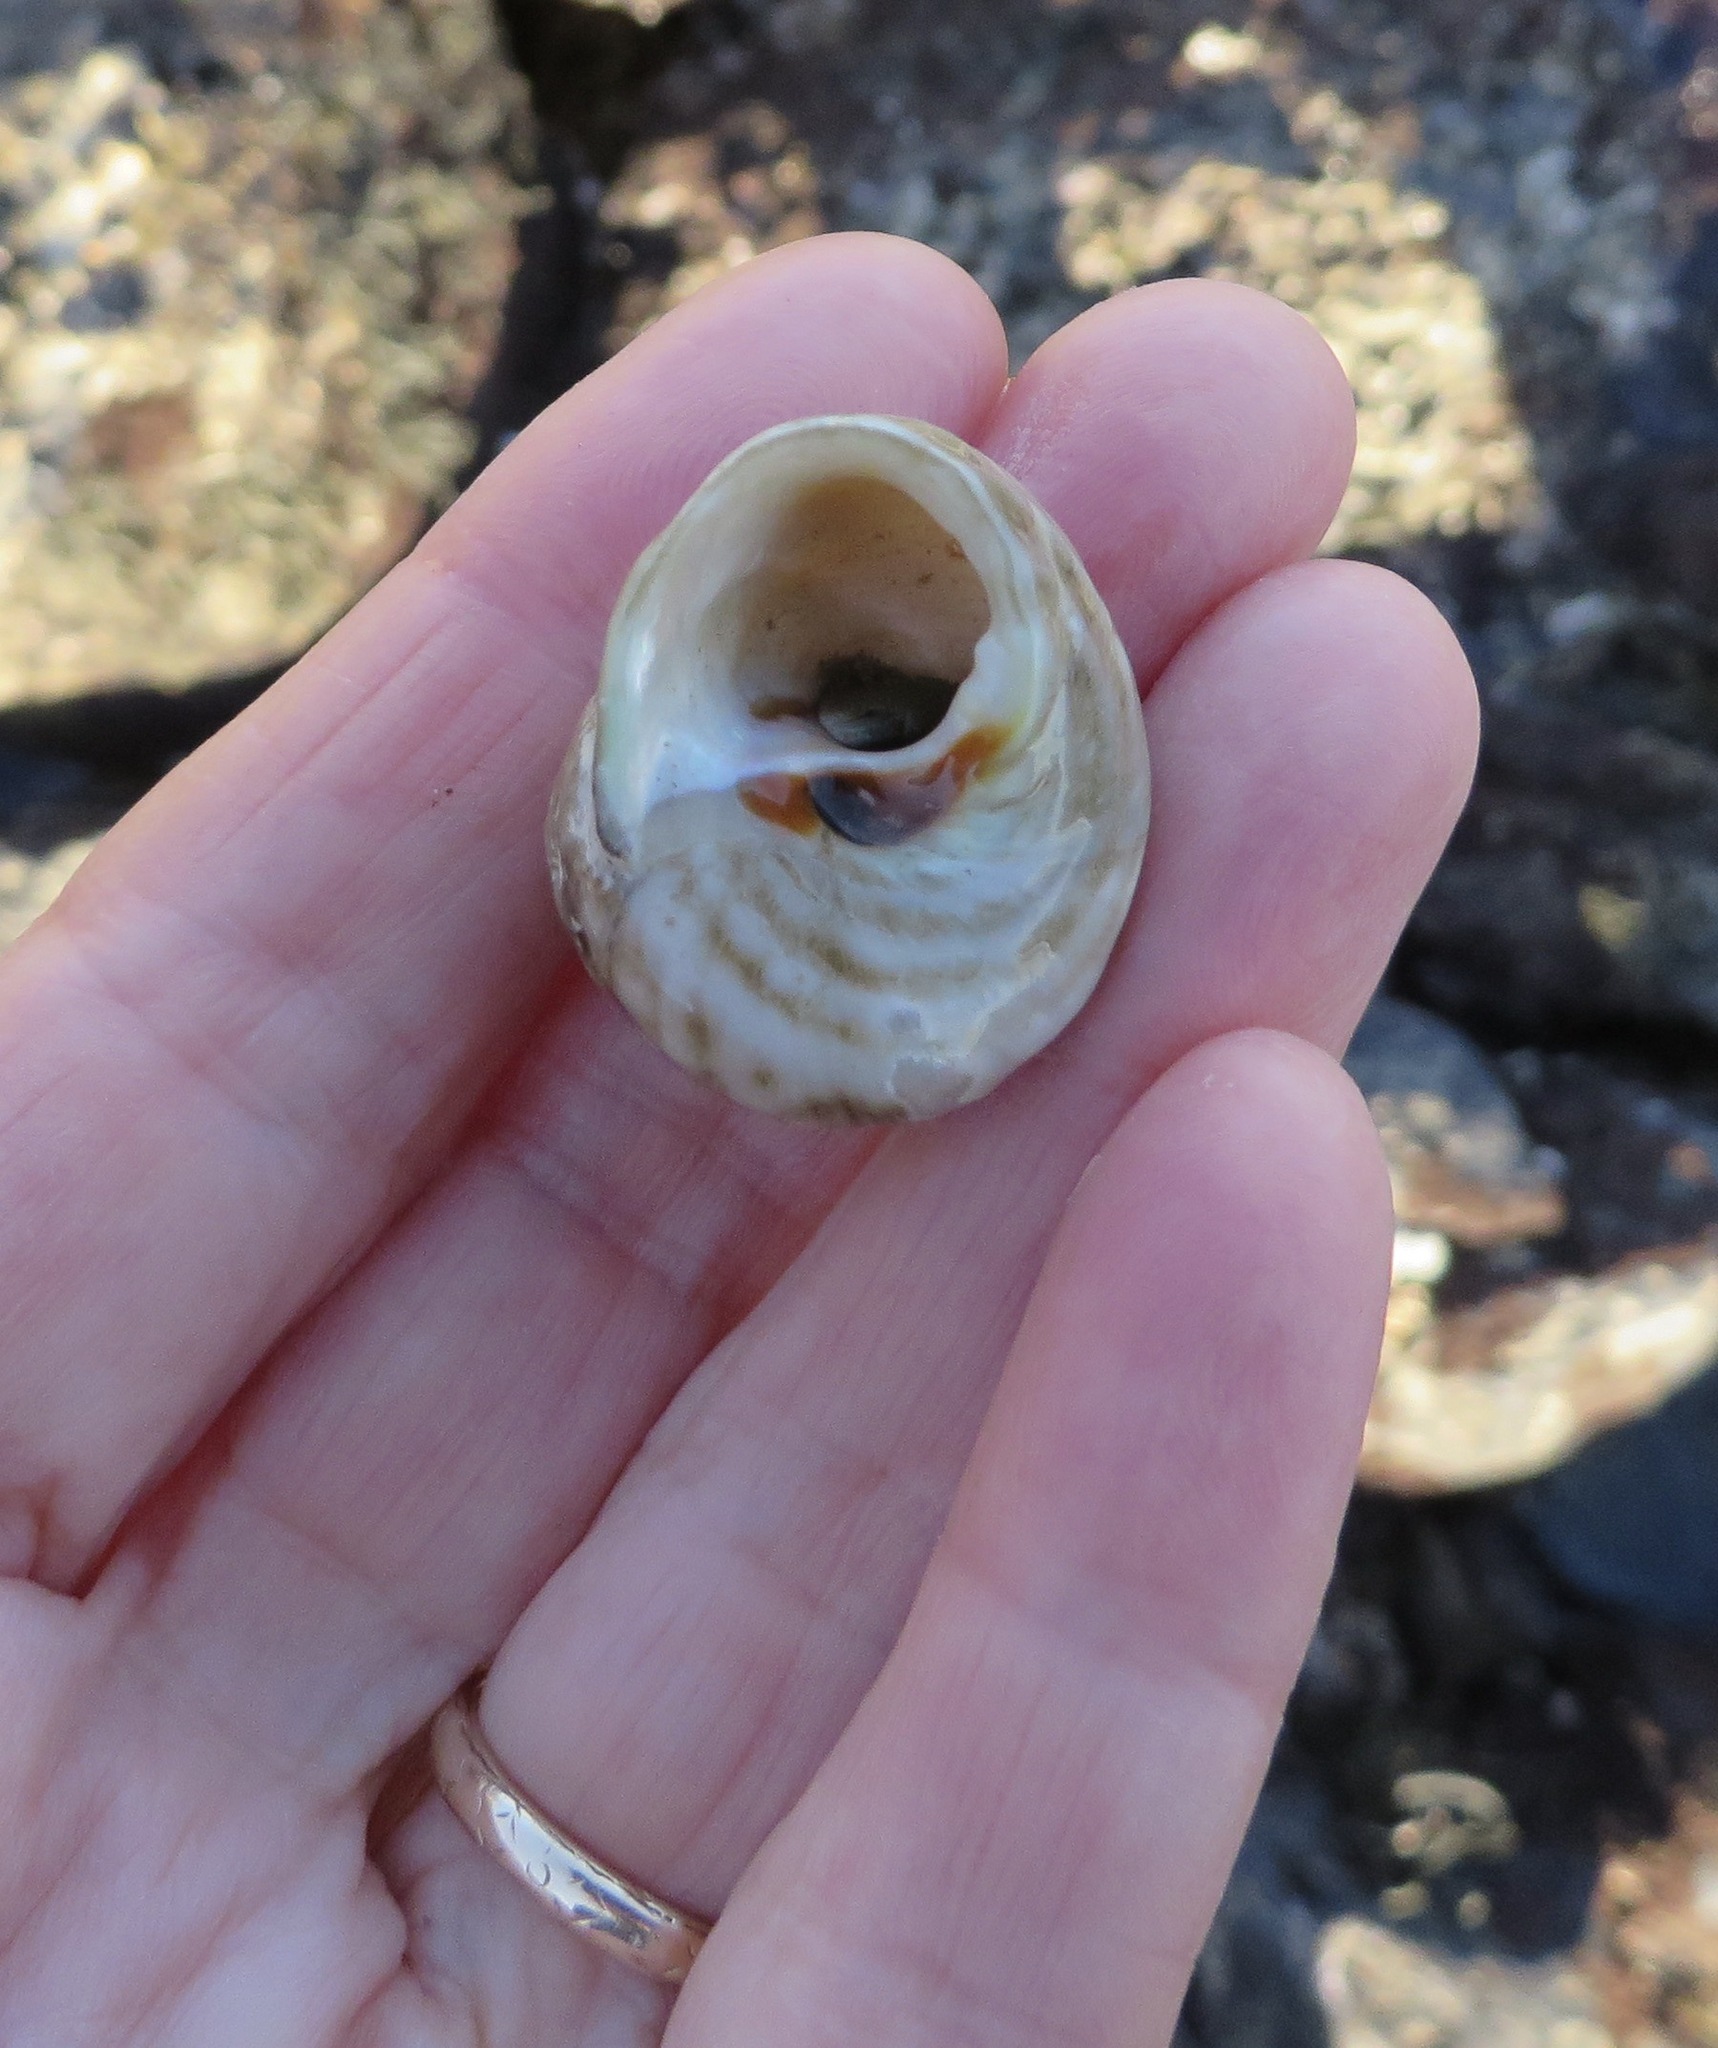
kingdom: Animalia
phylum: Mollusca
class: Gastropoda
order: Trochida
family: Tegulidae
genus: Tegula
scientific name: Tegula aureotincta
